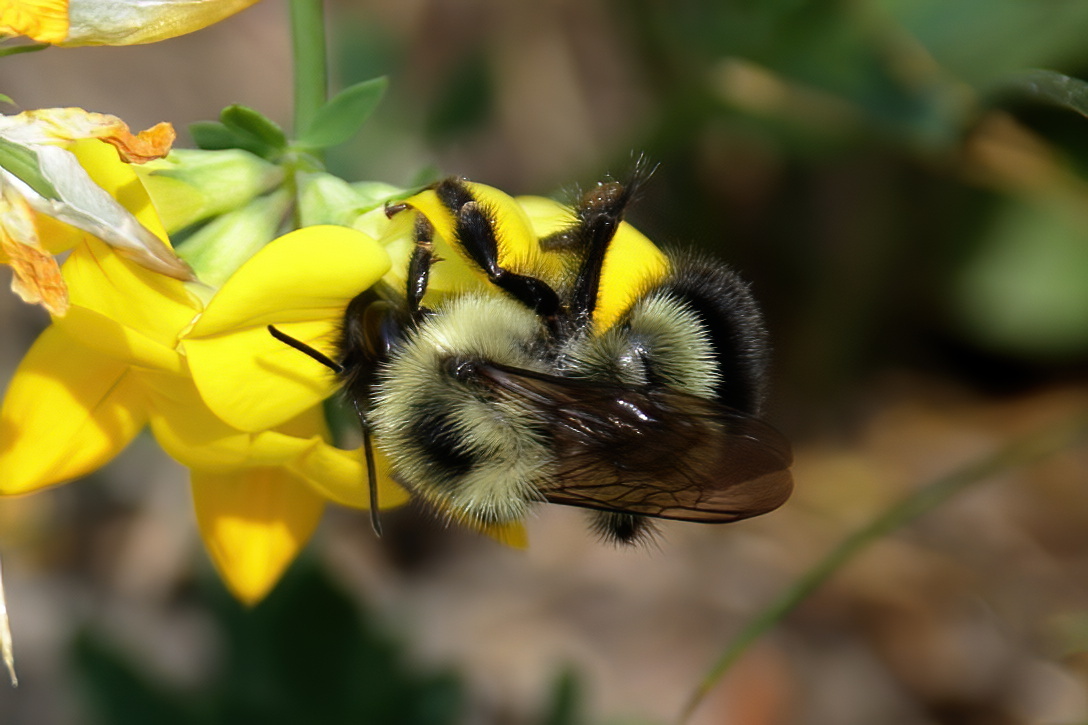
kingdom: Animalia
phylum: Arthropoda
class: Insecta
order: Hymenoptera
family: Apidae
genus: Bombus
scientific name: Bombus vagans
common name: Half-black bumble bee
